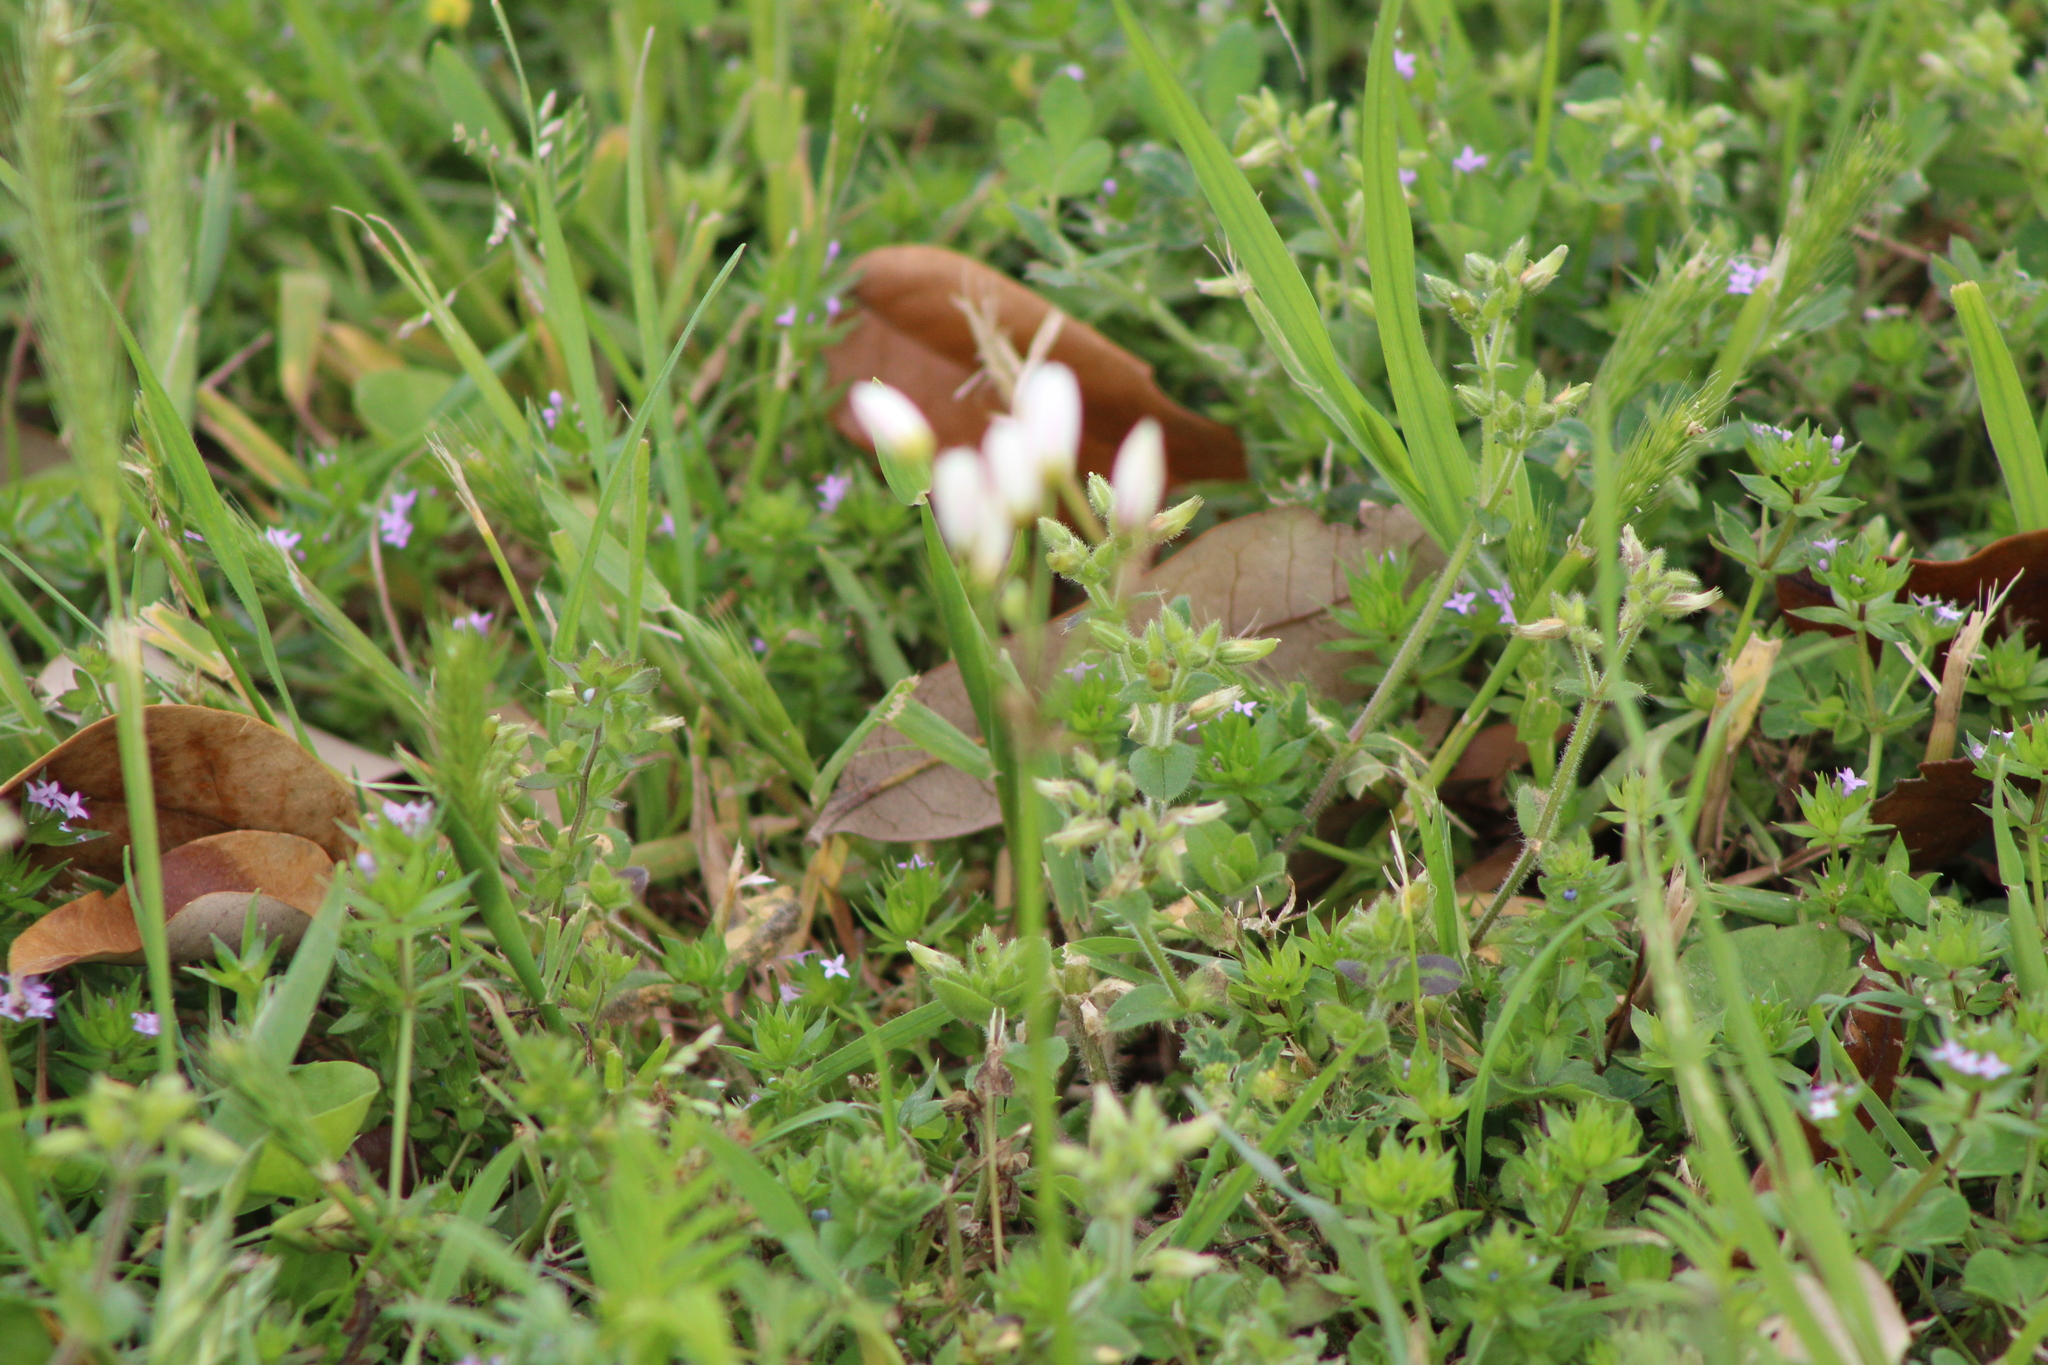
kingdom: Plantae
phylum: Tracheophyta
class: Liliopsida
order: Asparagales
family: Amaryllidaceae
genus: Nothoscordum
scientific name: Nothoscordum bivalve
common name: Crow-poison
